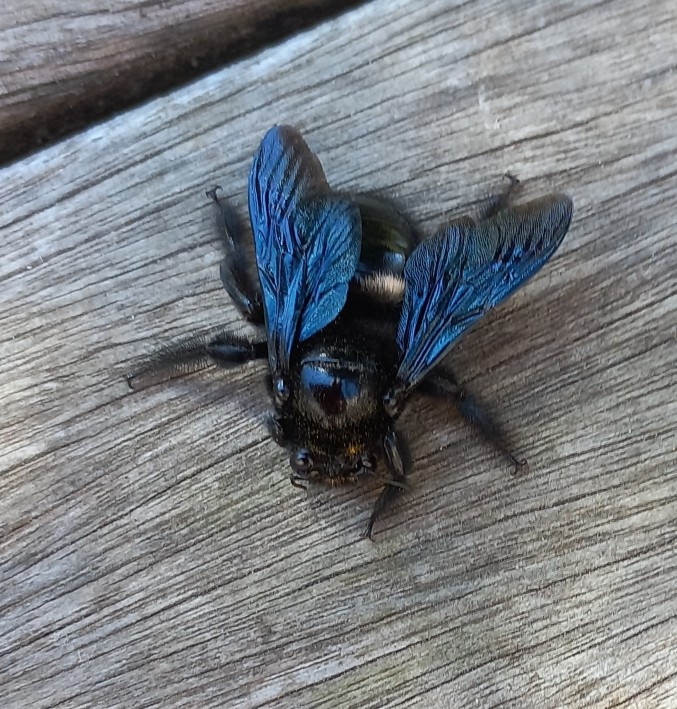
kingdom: Animalia
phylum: Arthropoda
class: Insecta
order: Hymenoptera
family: Apidae
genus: Xylocopa
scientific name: Xylocopa capitata
